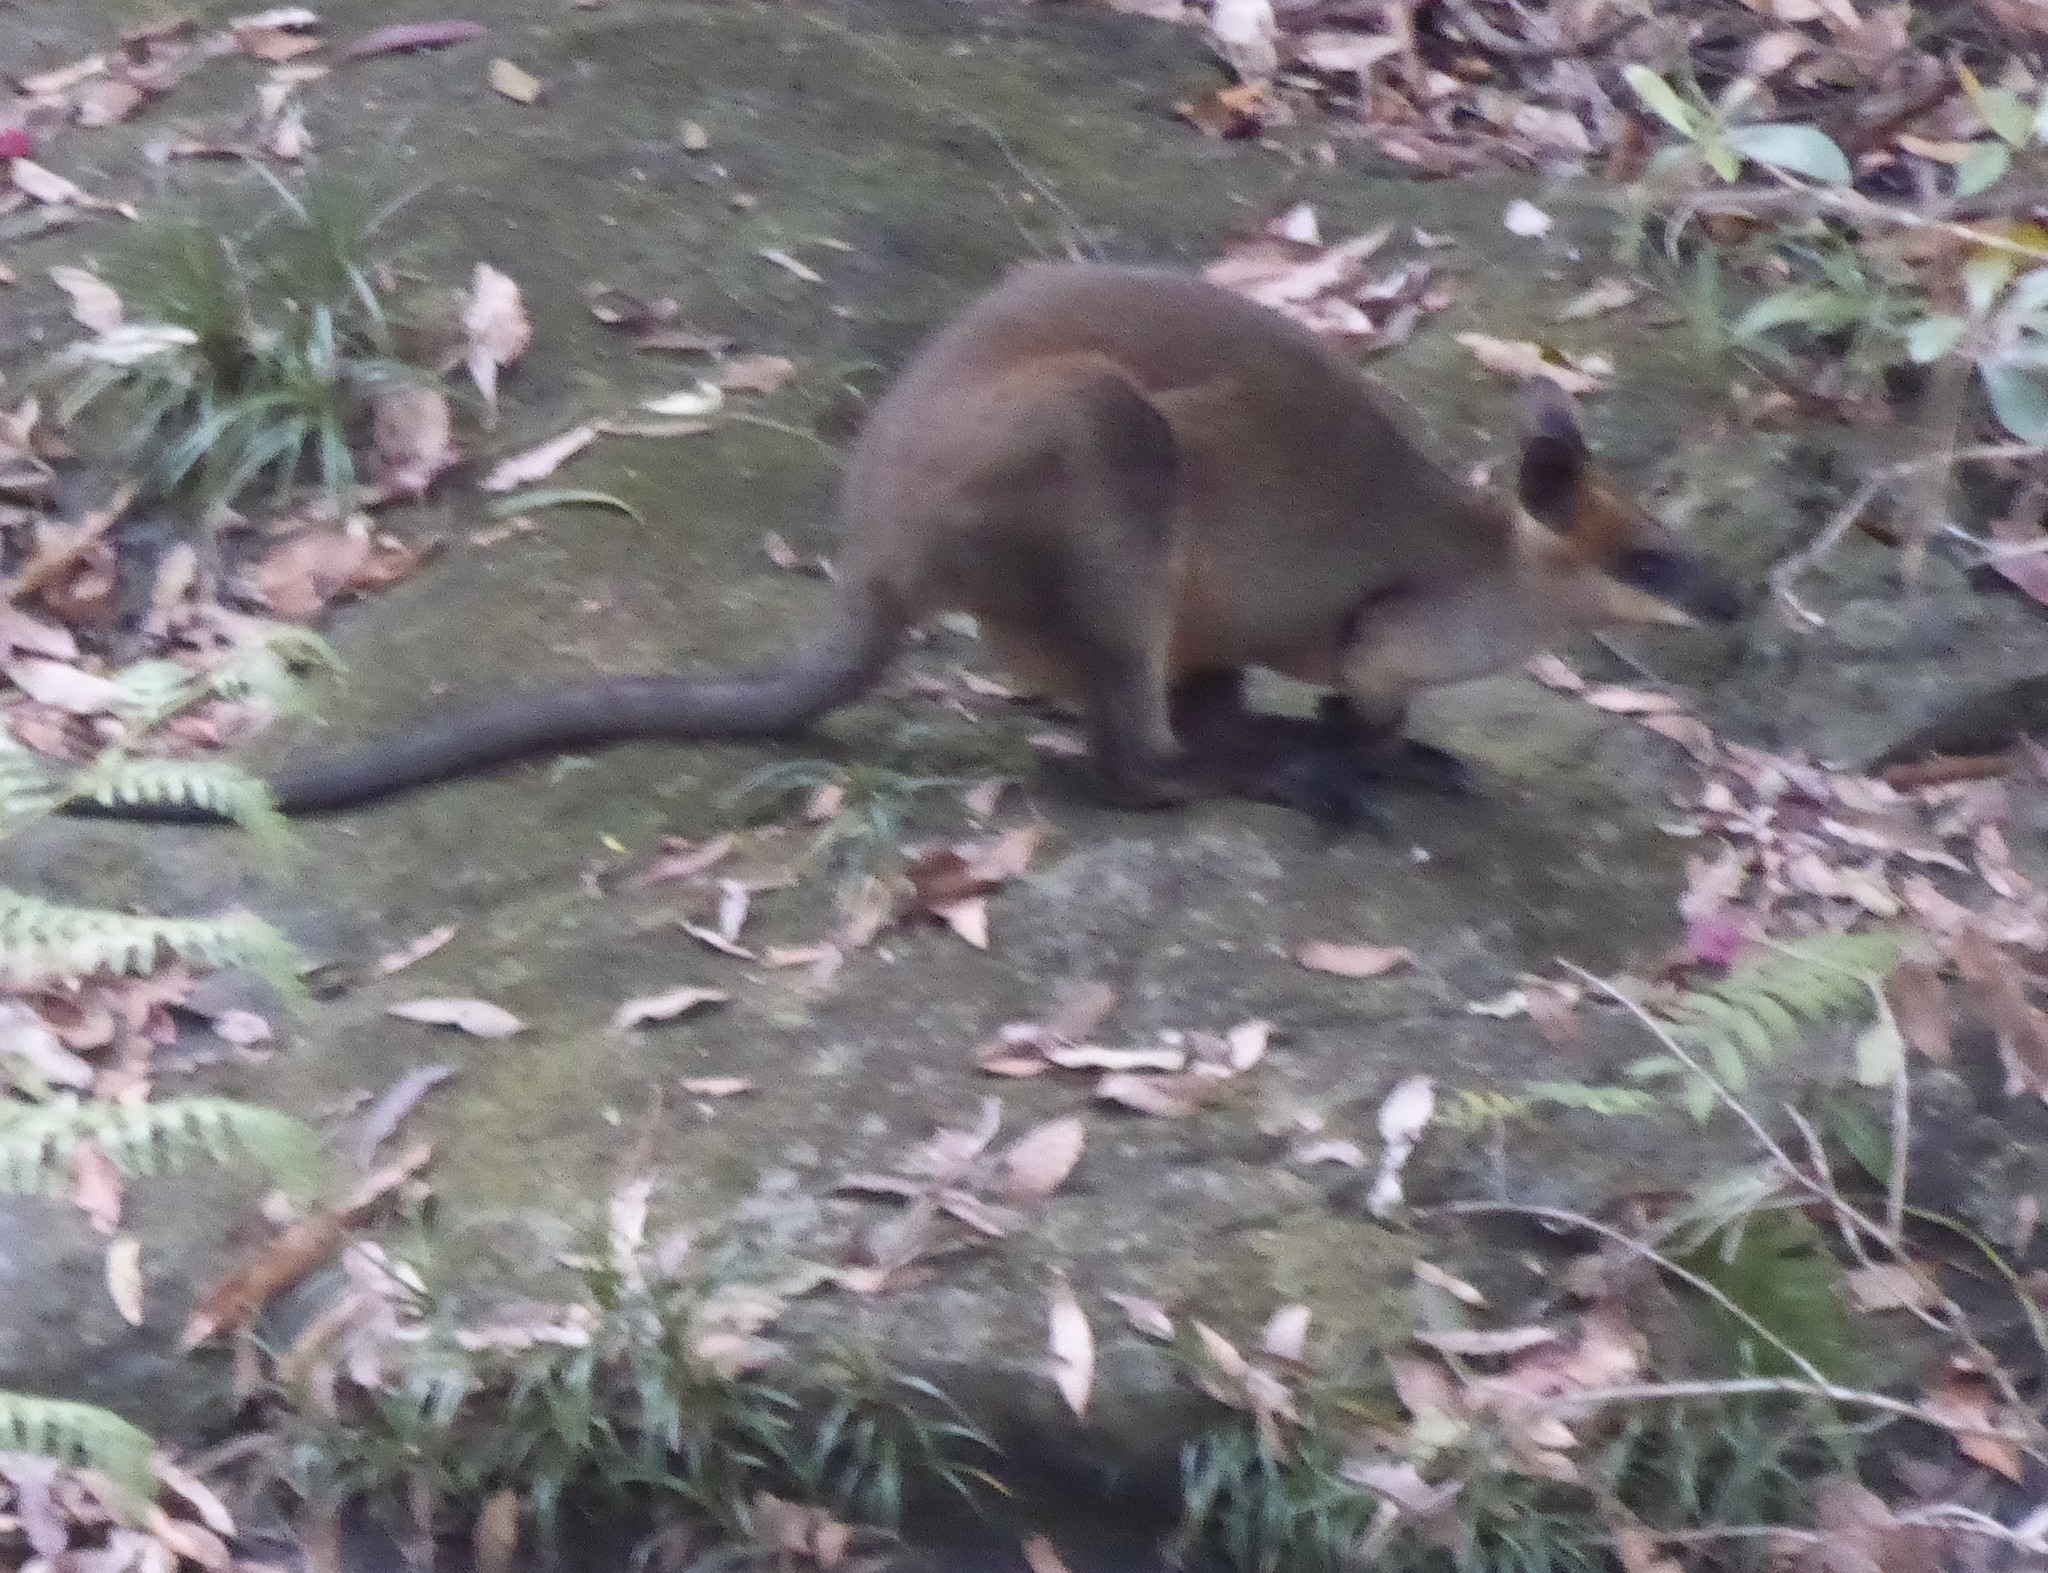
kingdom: Animalia
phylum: Chordata
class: Mammalia
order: Diprotodontia
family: Macropodidae
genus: Wallabia
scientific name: Wallabia bicolor
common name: Swamp wallaby
